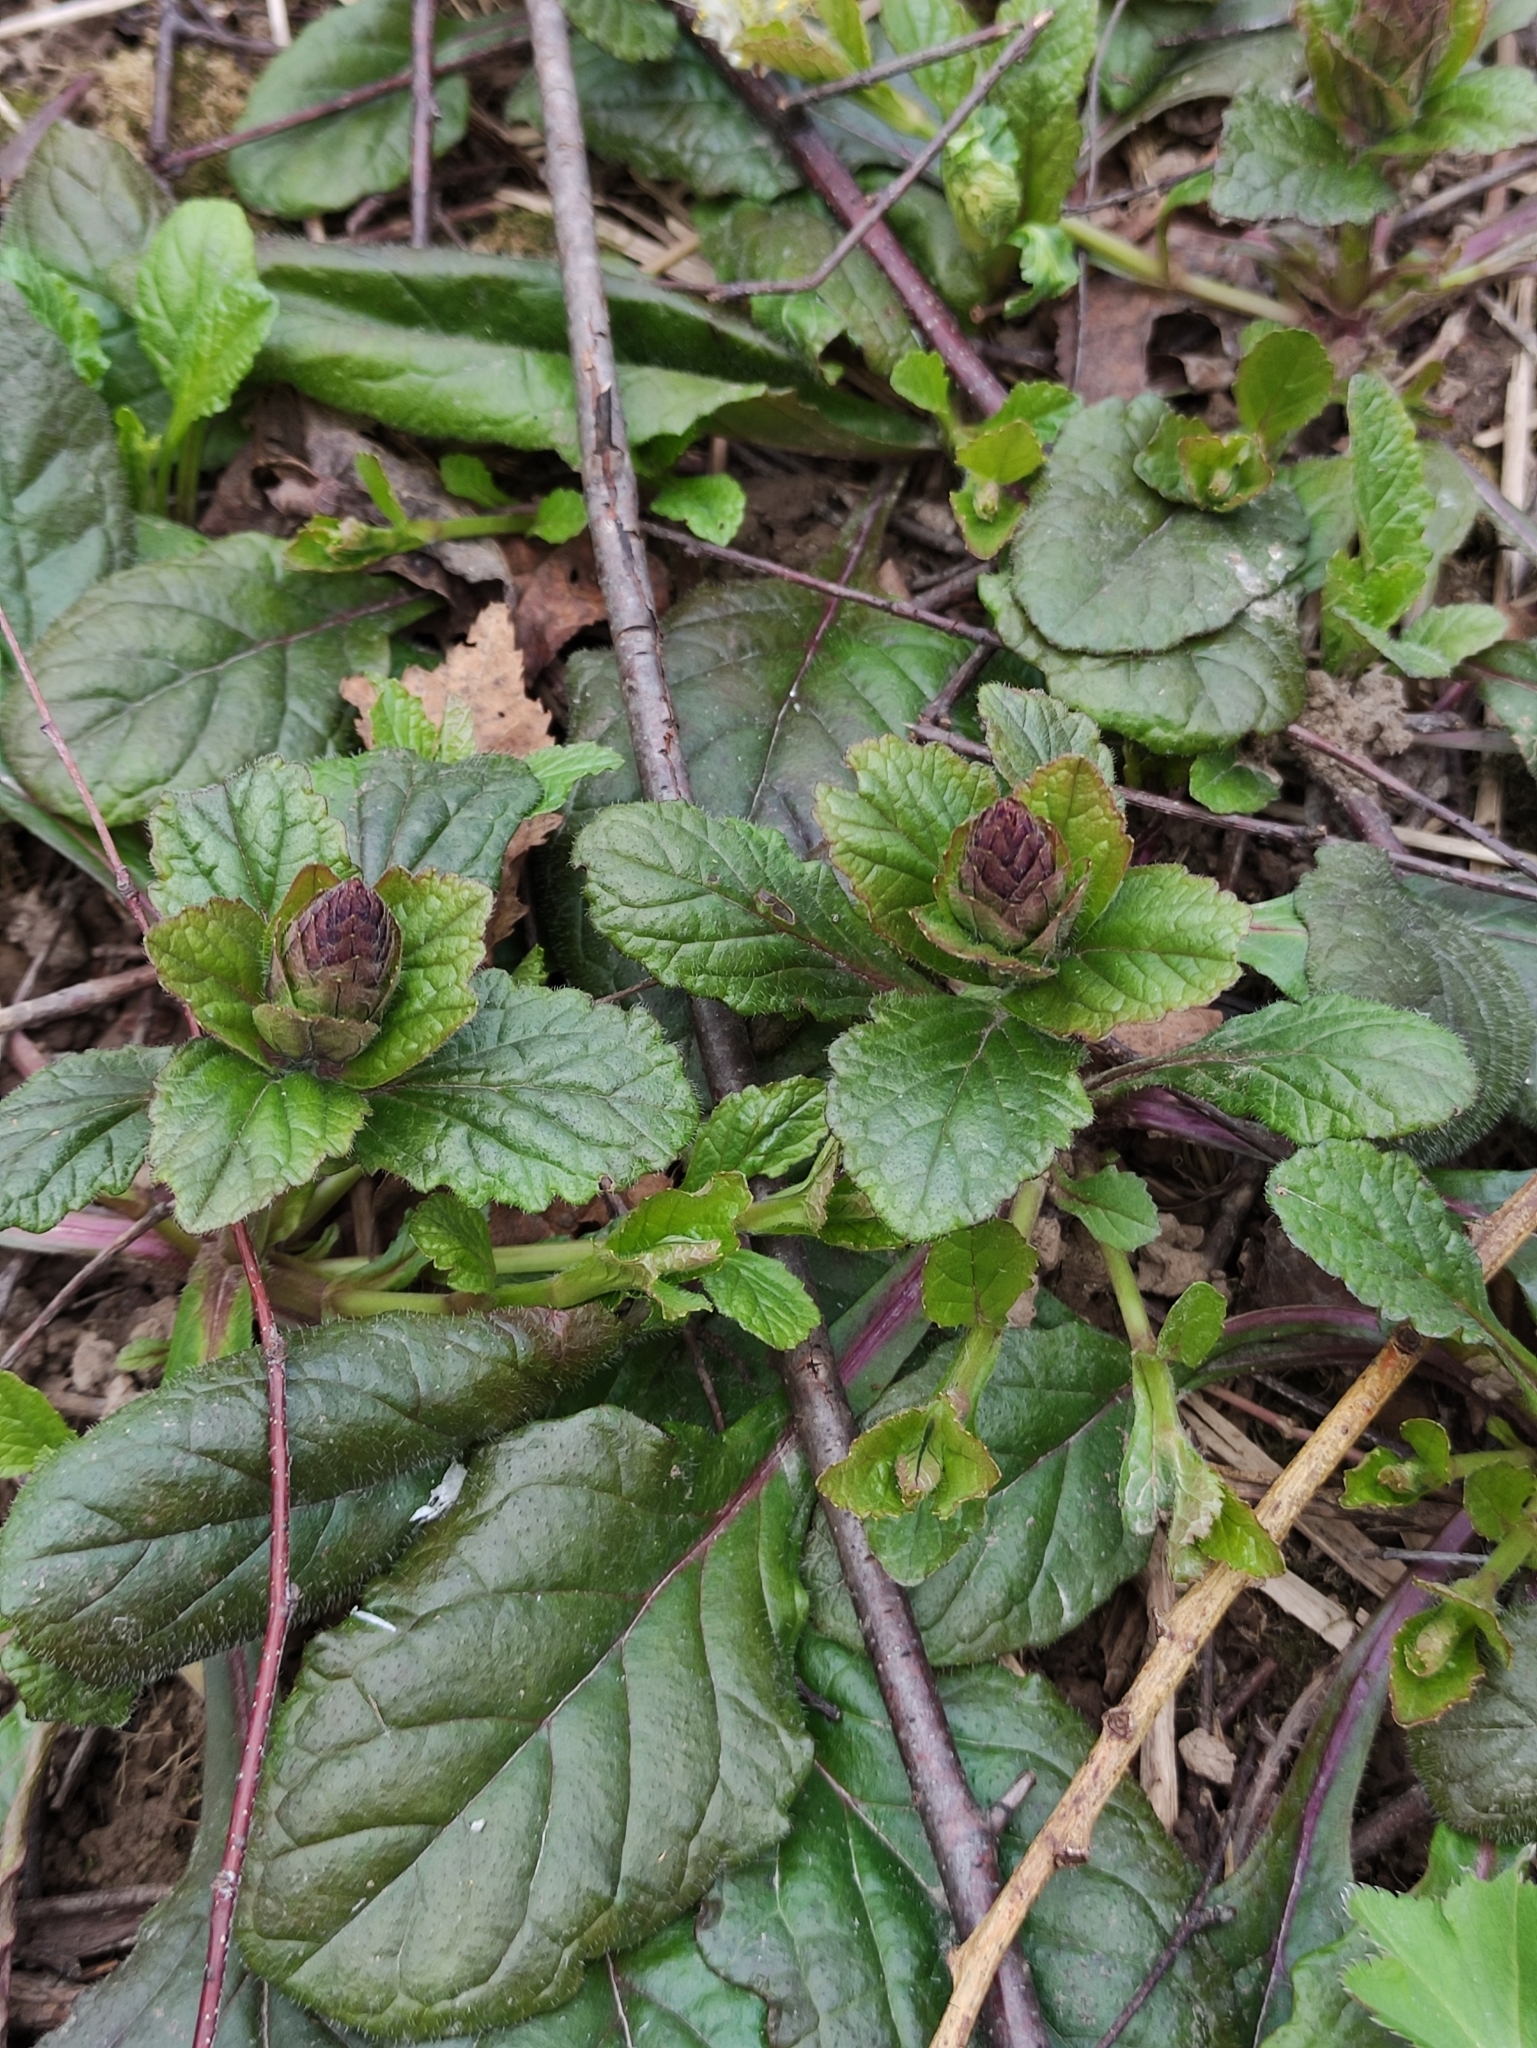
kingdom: Plantae
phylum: Tracheophyta
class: Magnoliopsida
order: Lamiales
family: Lamiaceae
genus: Ajuga
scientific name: Ajuga reptans
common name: Bugle
